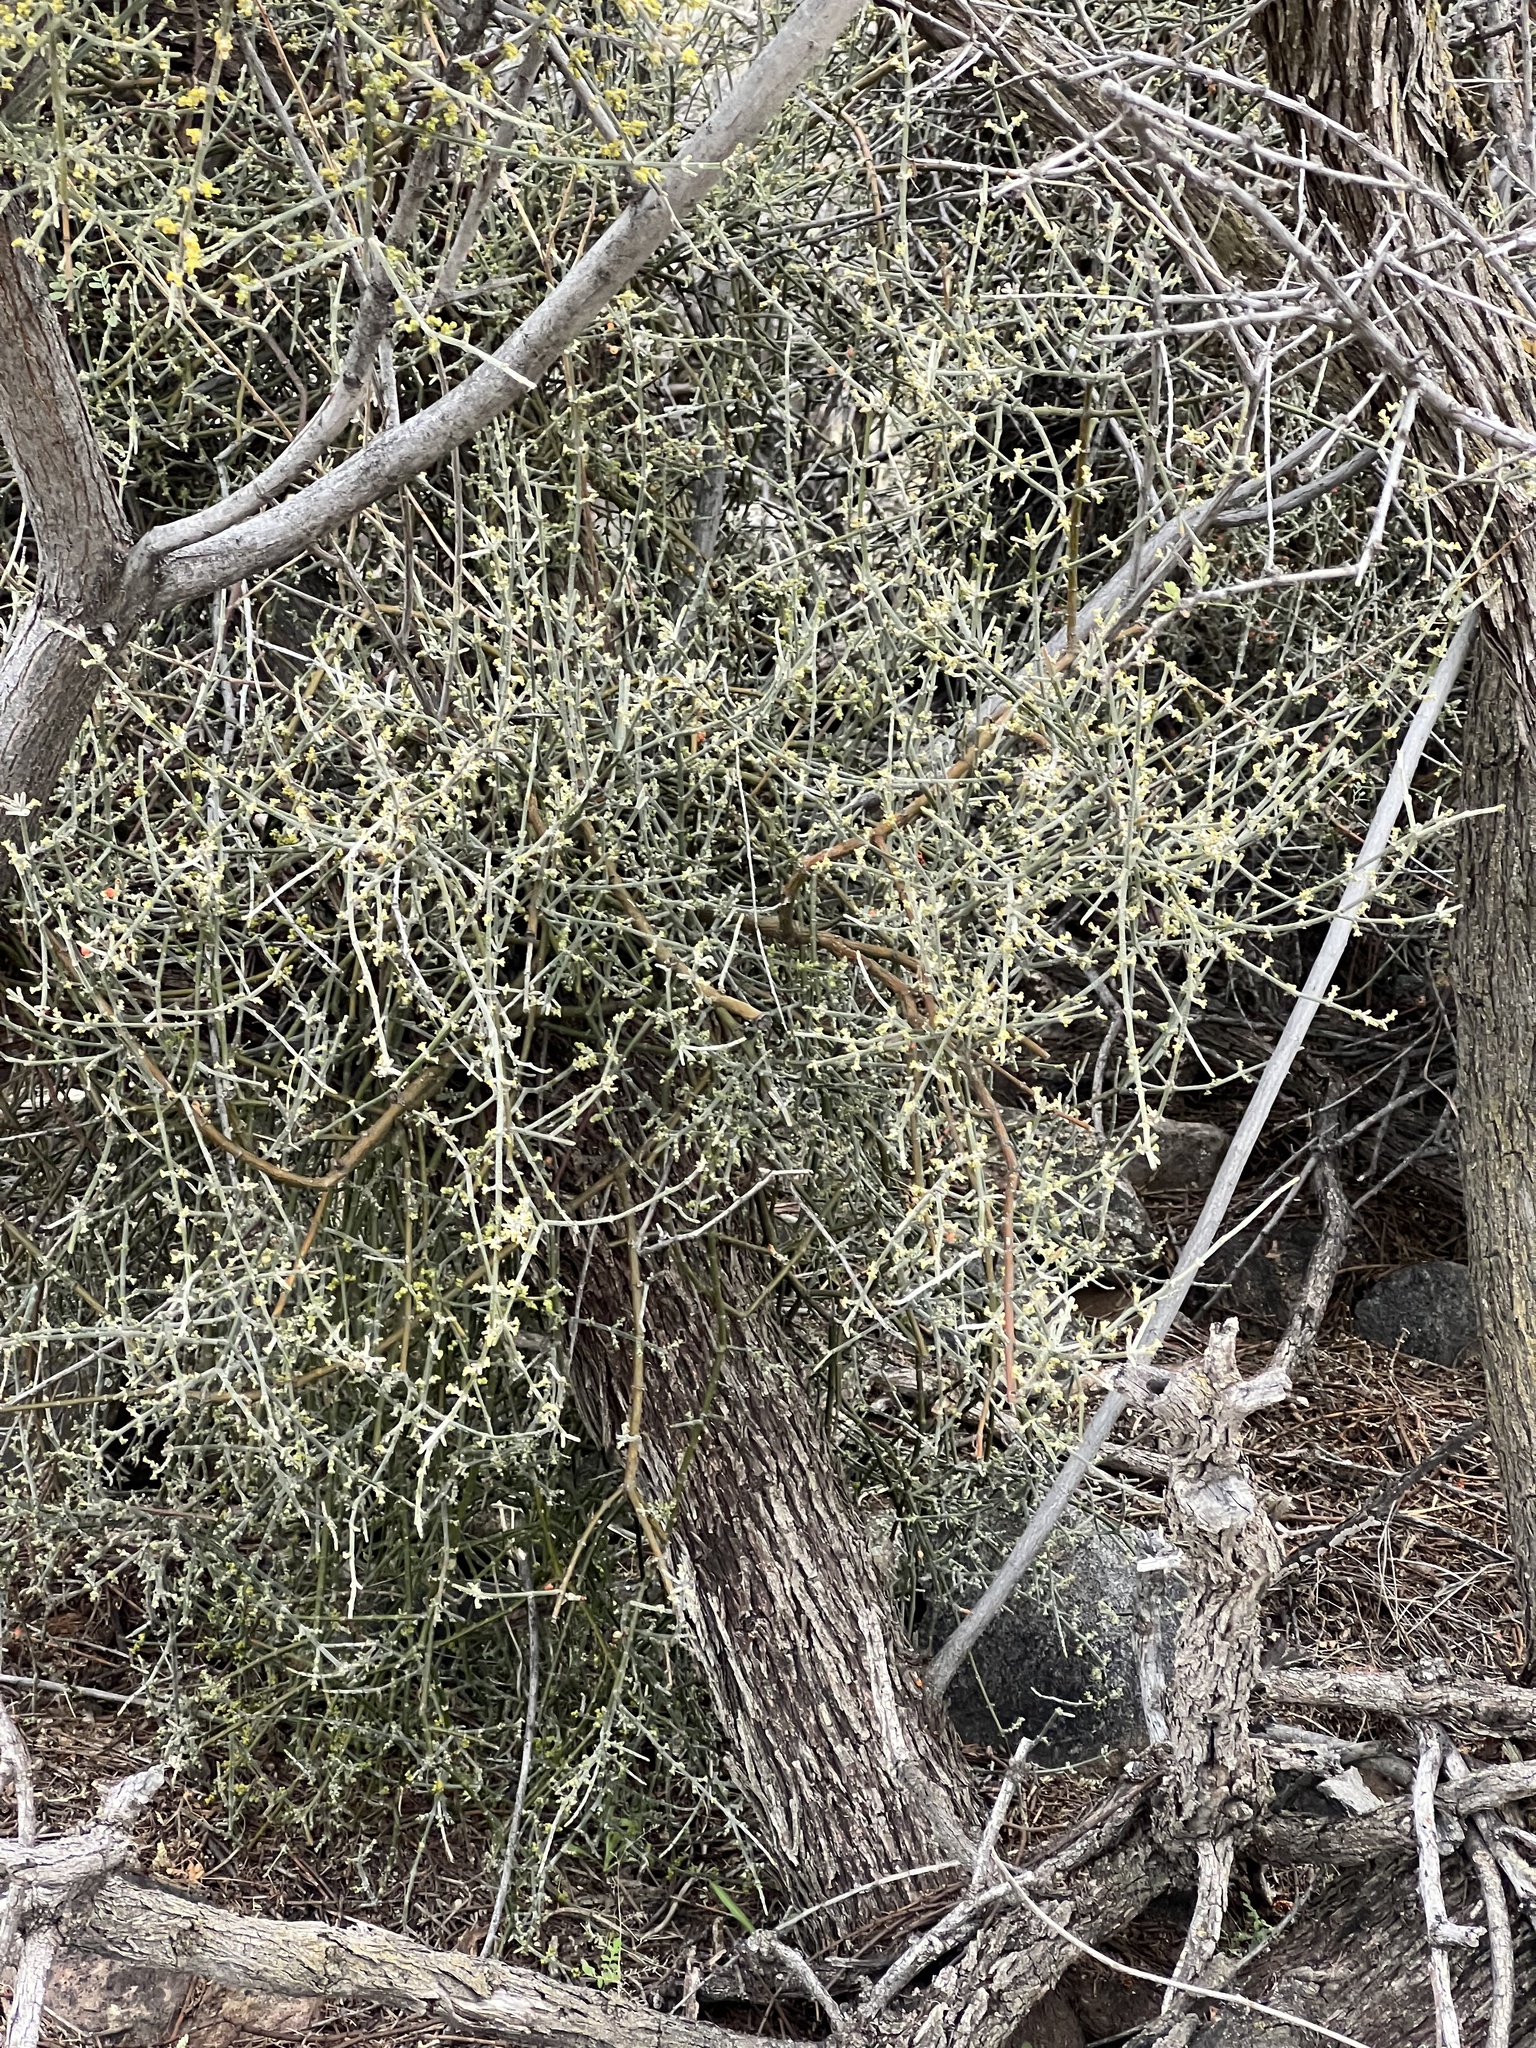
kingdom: Plantae
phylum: Tracheophyta
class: Magnoliopsida
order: Santalales
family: Viscaceae
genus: Phoradendron
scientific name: Phoradendron californicum
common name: Acacia mistletoe
